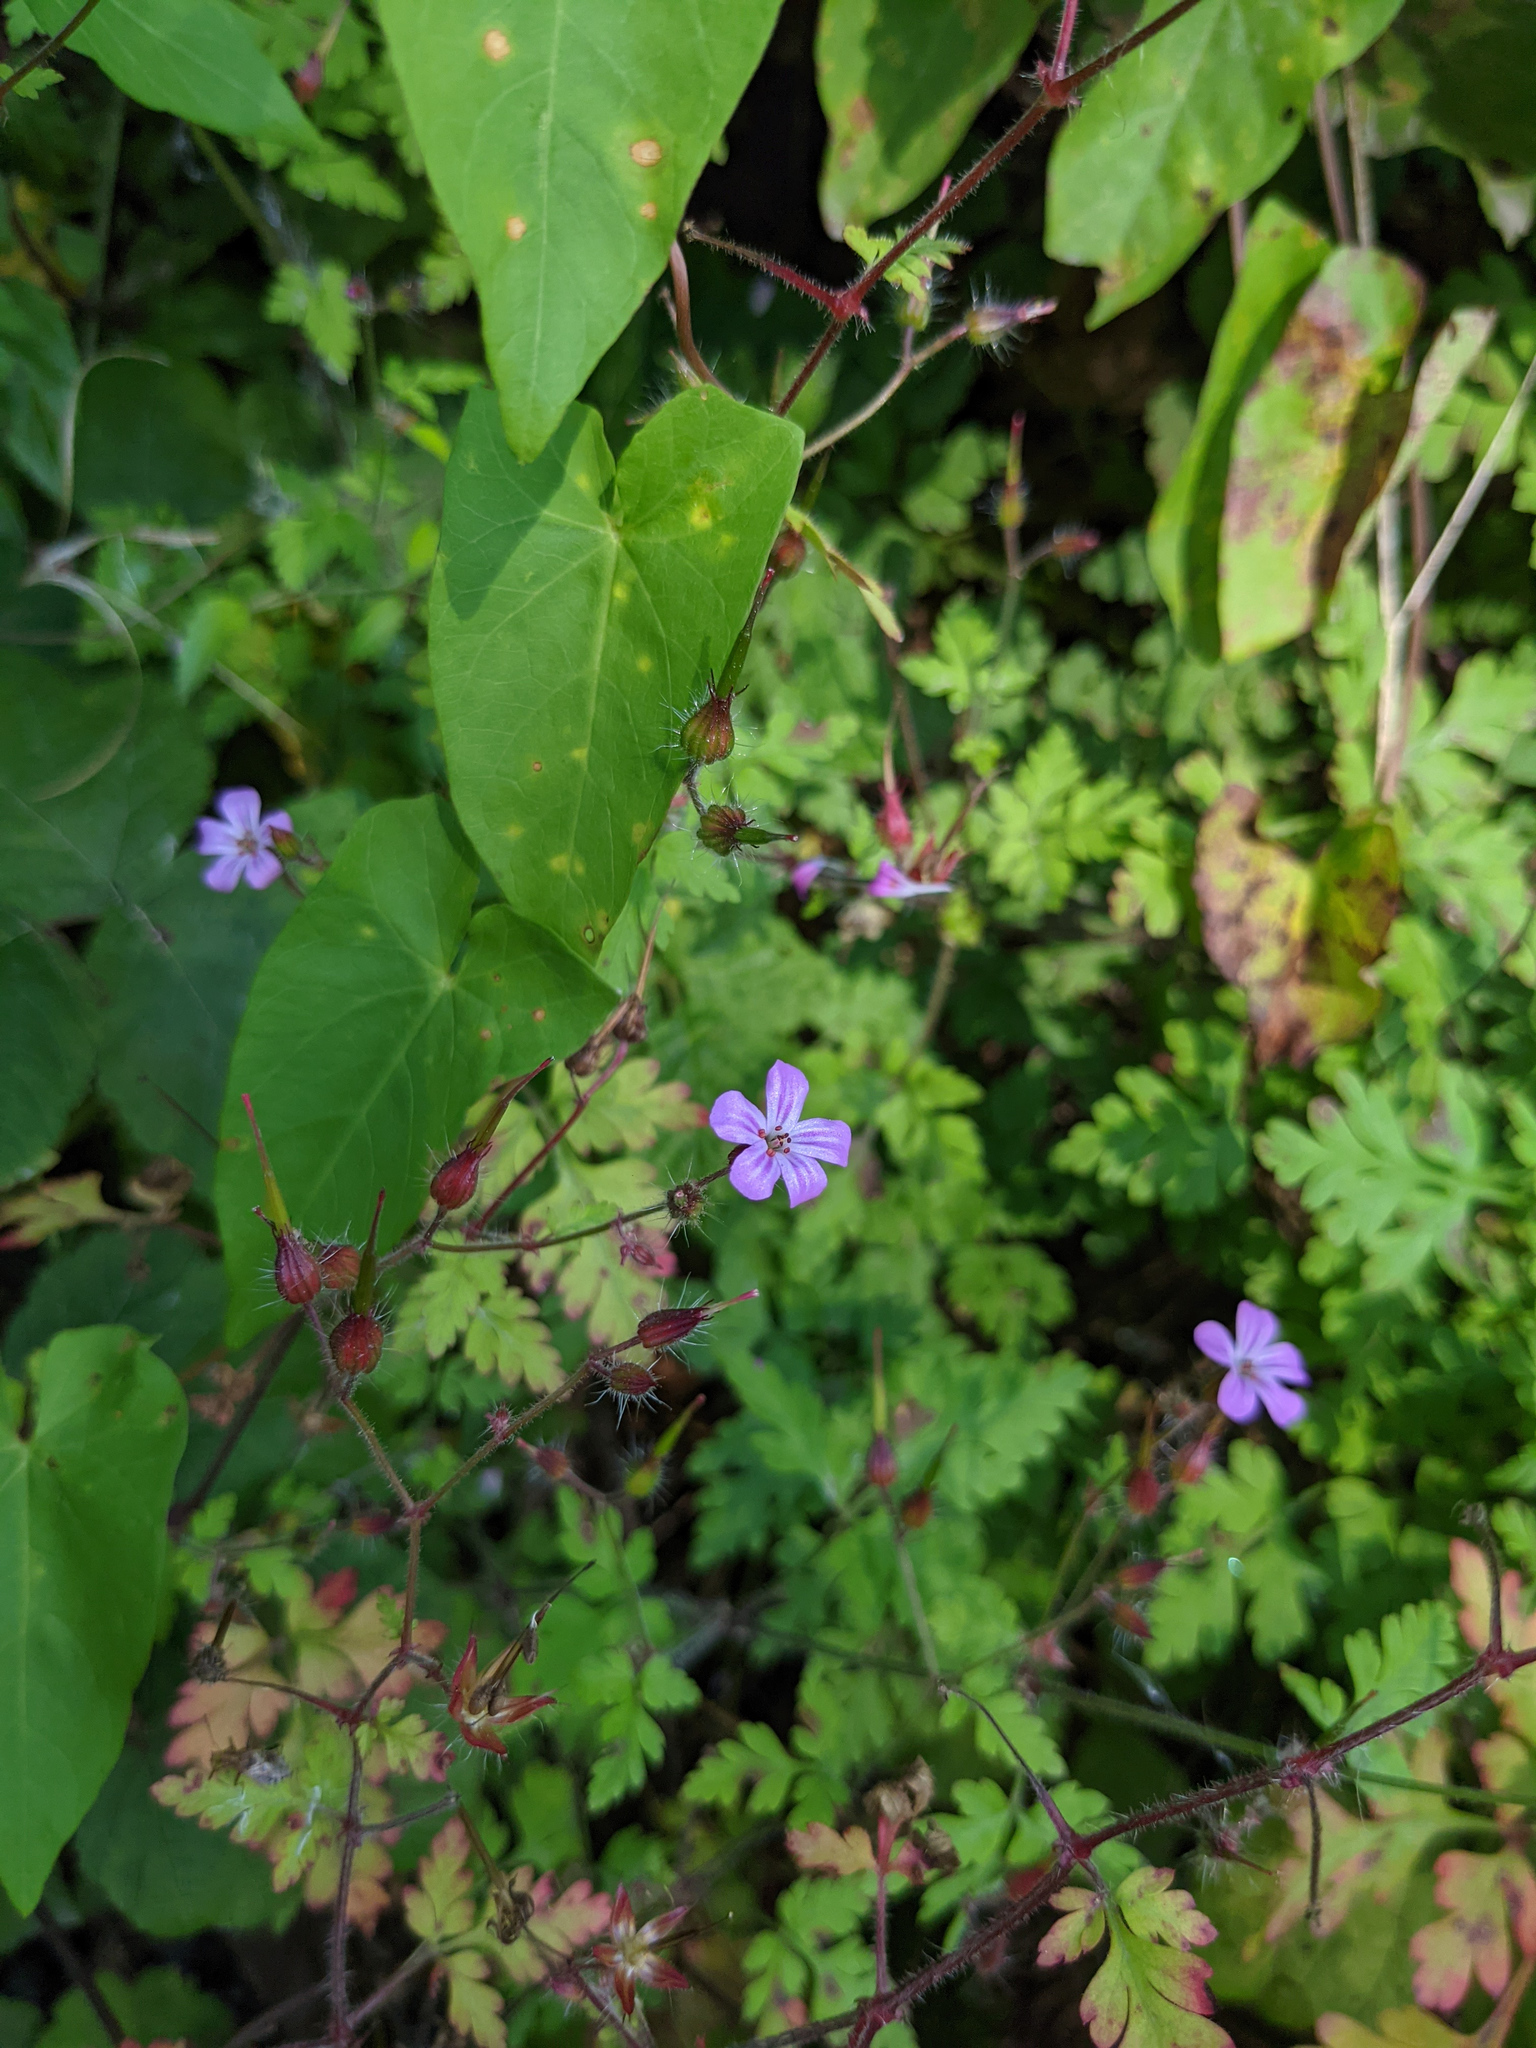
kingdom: Plantae
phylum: Tracheophyta
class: Magnoliopsida
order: Geraniales
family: Geraniaceae
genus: Geranium
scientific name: Geranium robertianum
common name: Herb-robert
